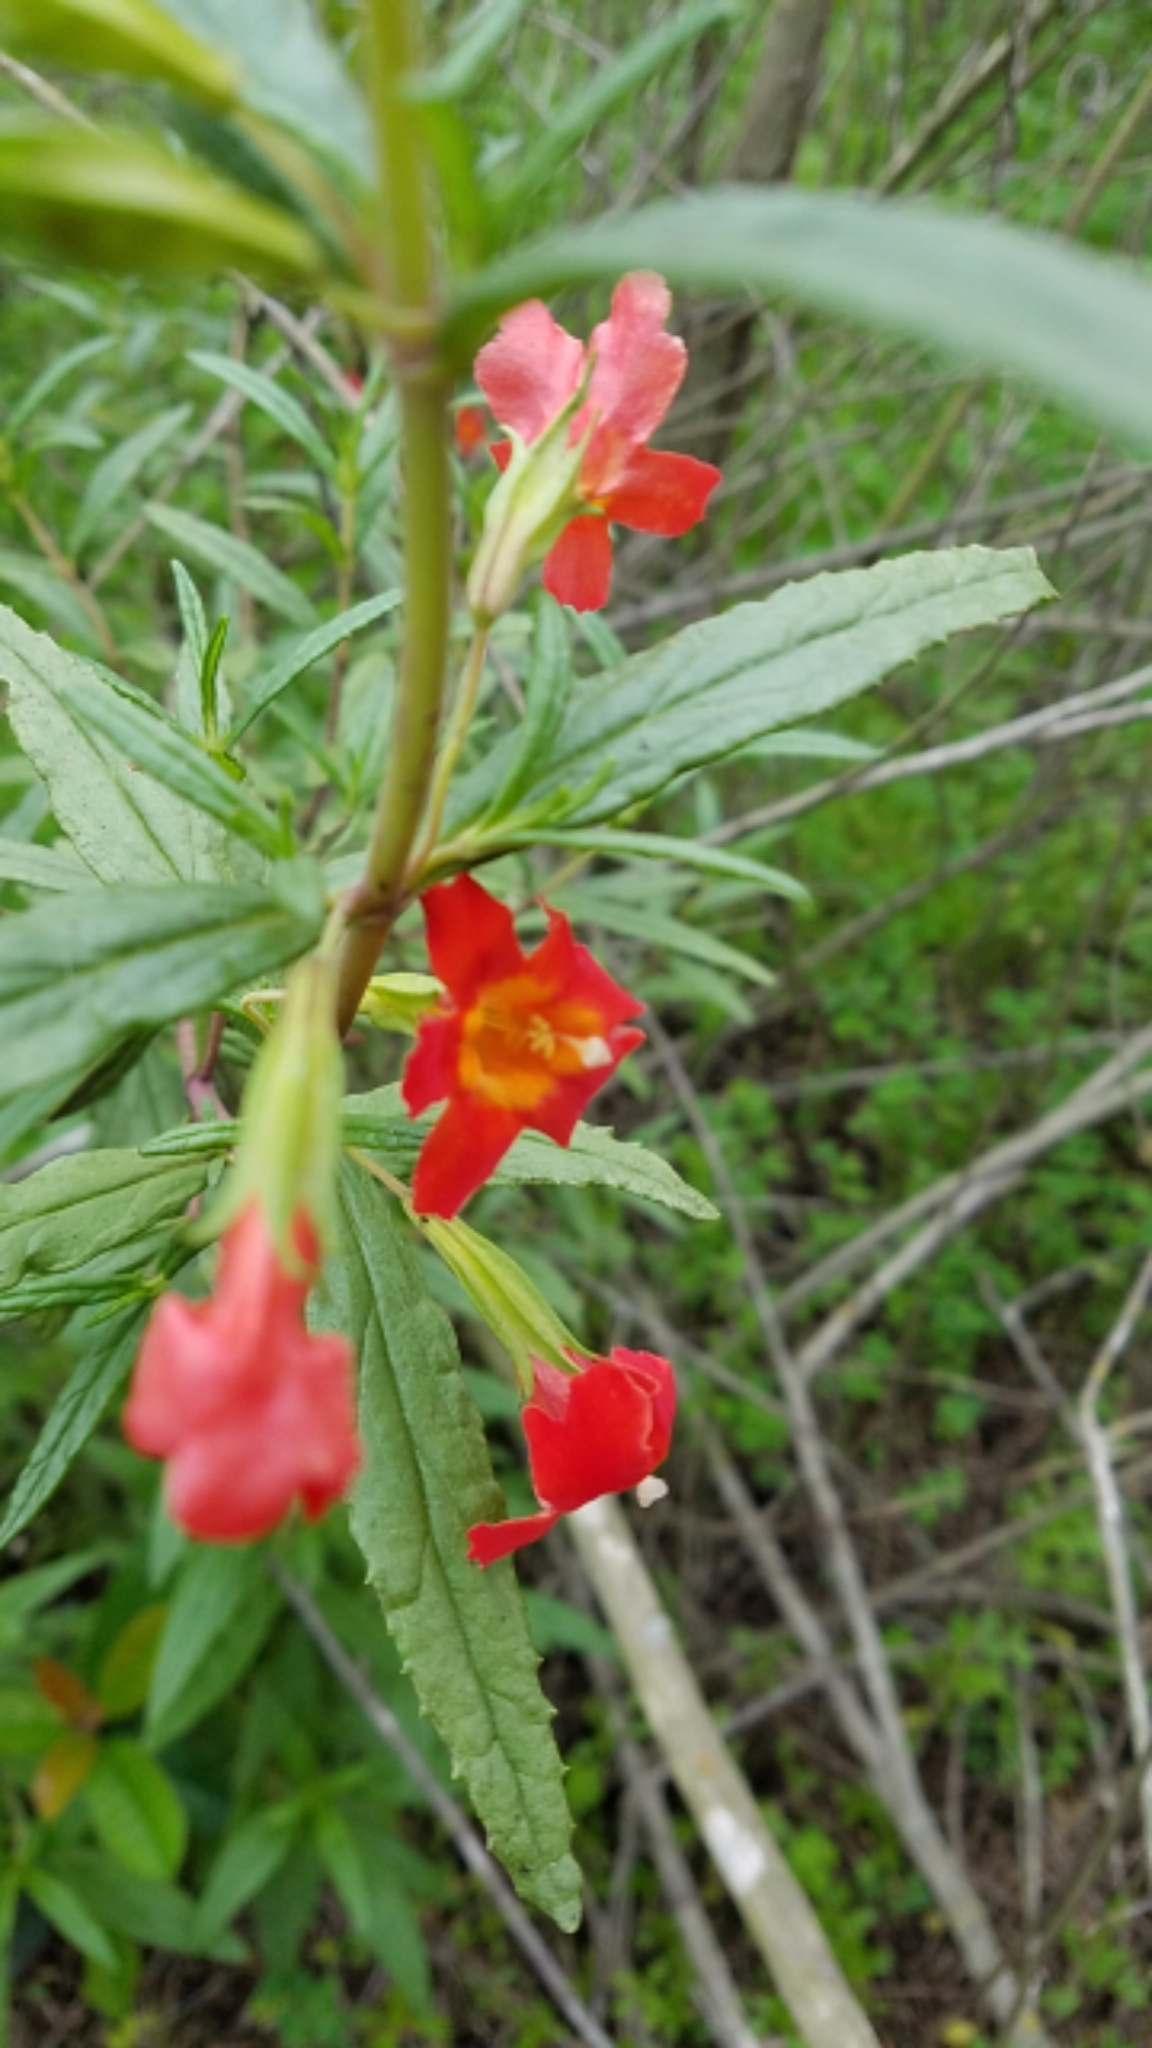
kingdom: Plantae
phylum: Tracheophyta
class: Magnoliopsida
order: Lamiales
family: Phrymaceae
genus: Diplacus
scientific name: Diplacus puniceus
